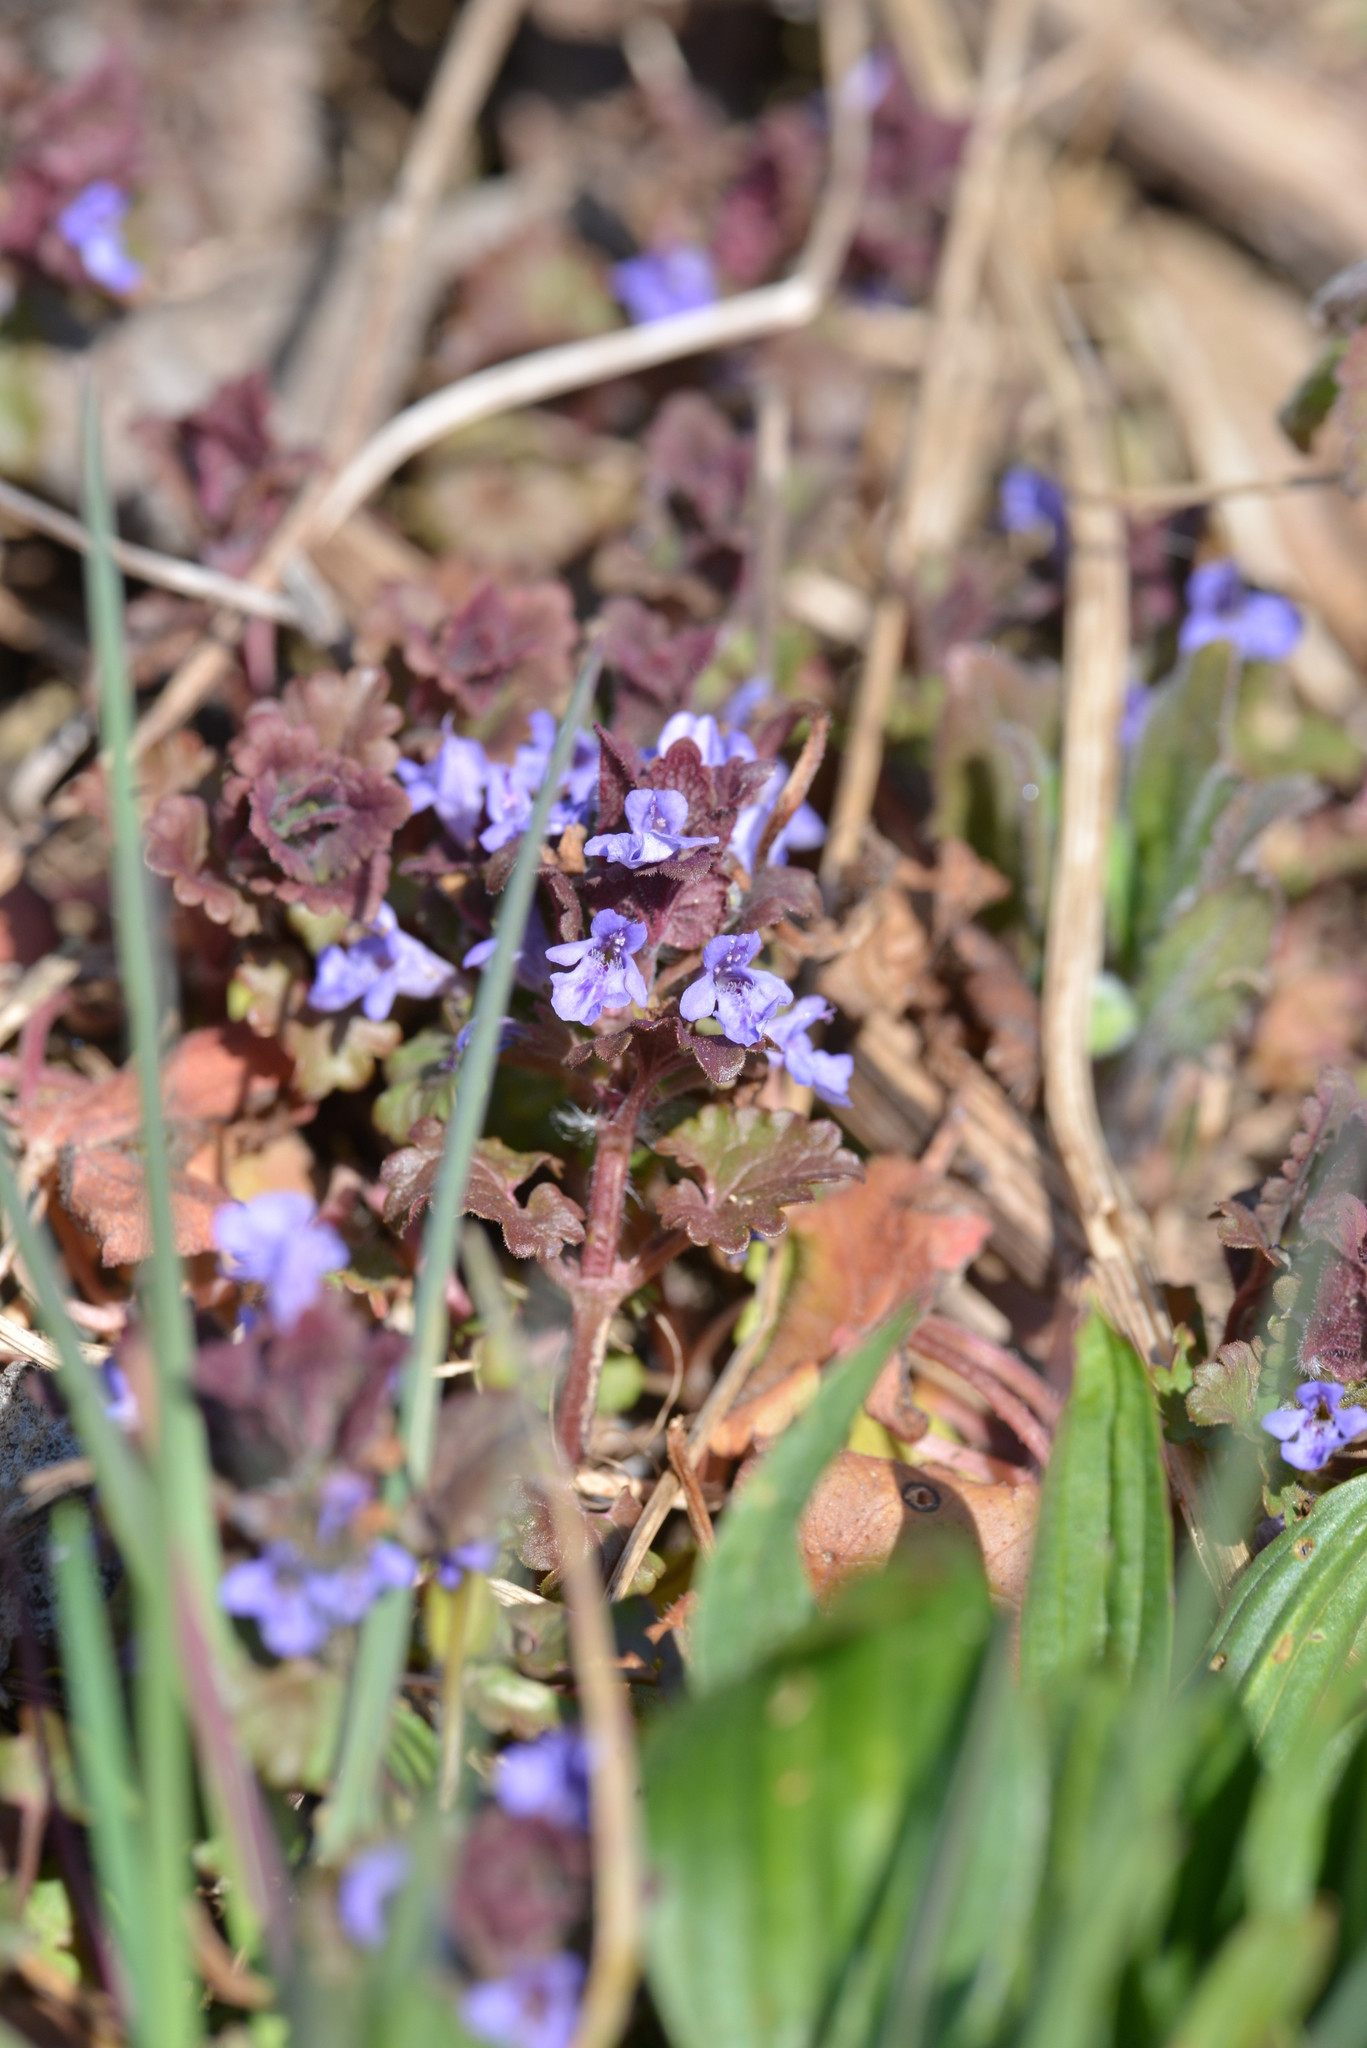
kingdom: Plantae
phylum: Tracheophyta
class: Magnoliopsida
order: Lamiales
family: Lamiaceae
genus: Glechoma
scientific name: Glechoma hederacea
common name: Ground ivy
